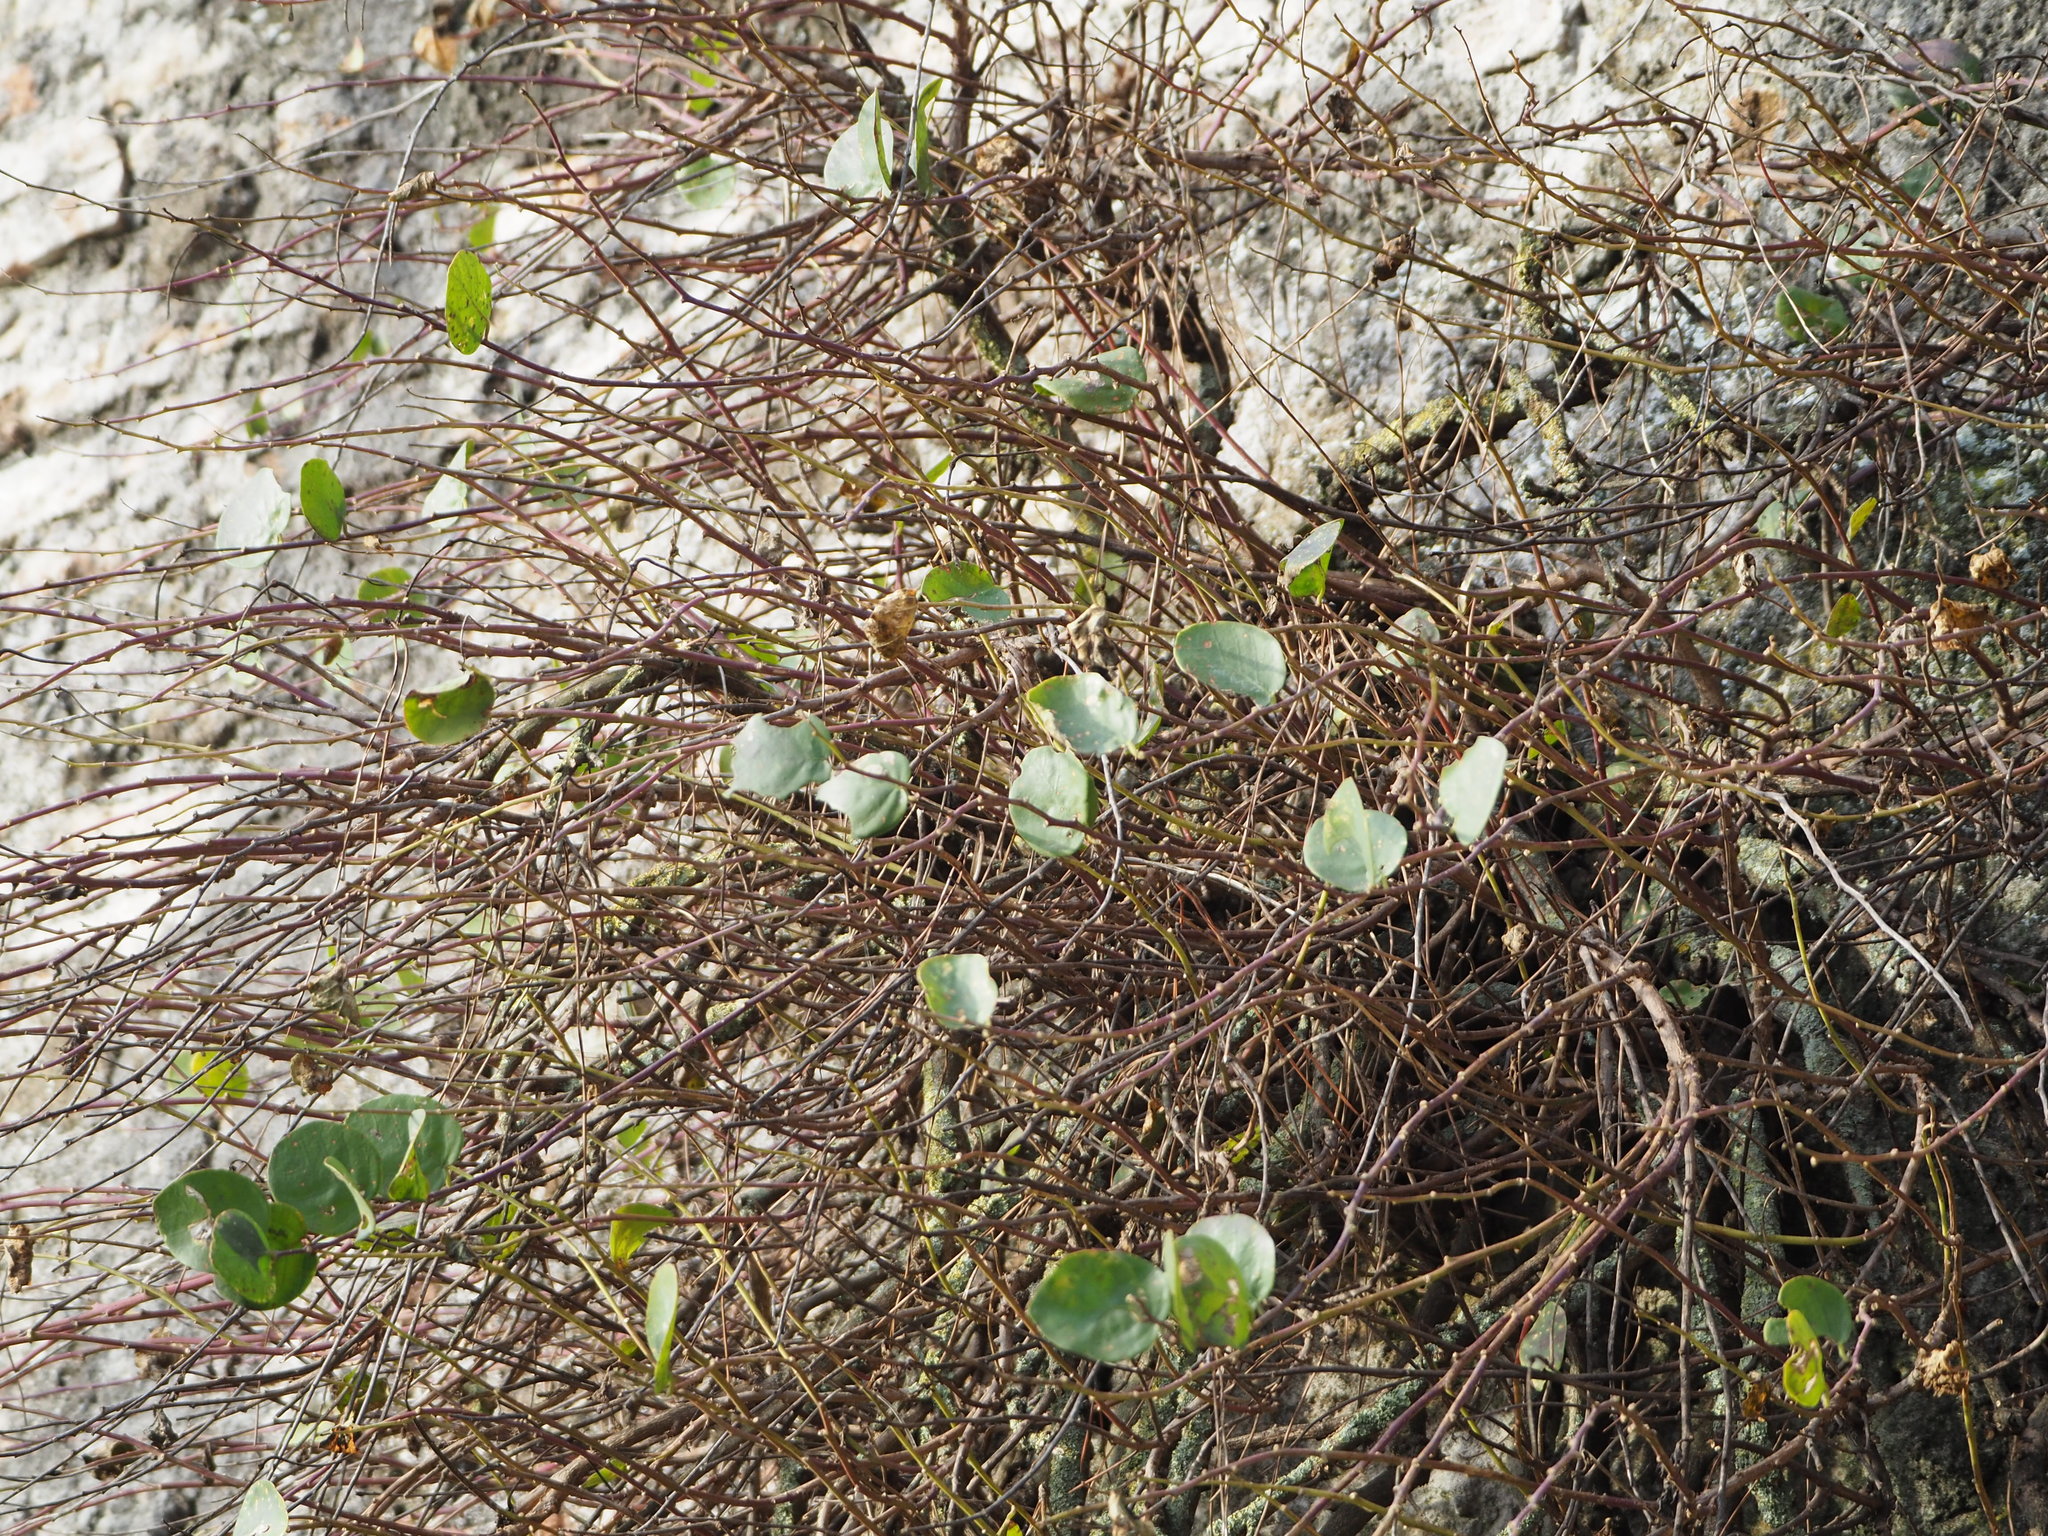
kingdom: Plantae
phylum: Tracheophyta
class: Magnoliopsida
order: Brassicales
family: Capparaceae
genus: Capparis
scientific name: Capparis spinosa
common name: Caper
